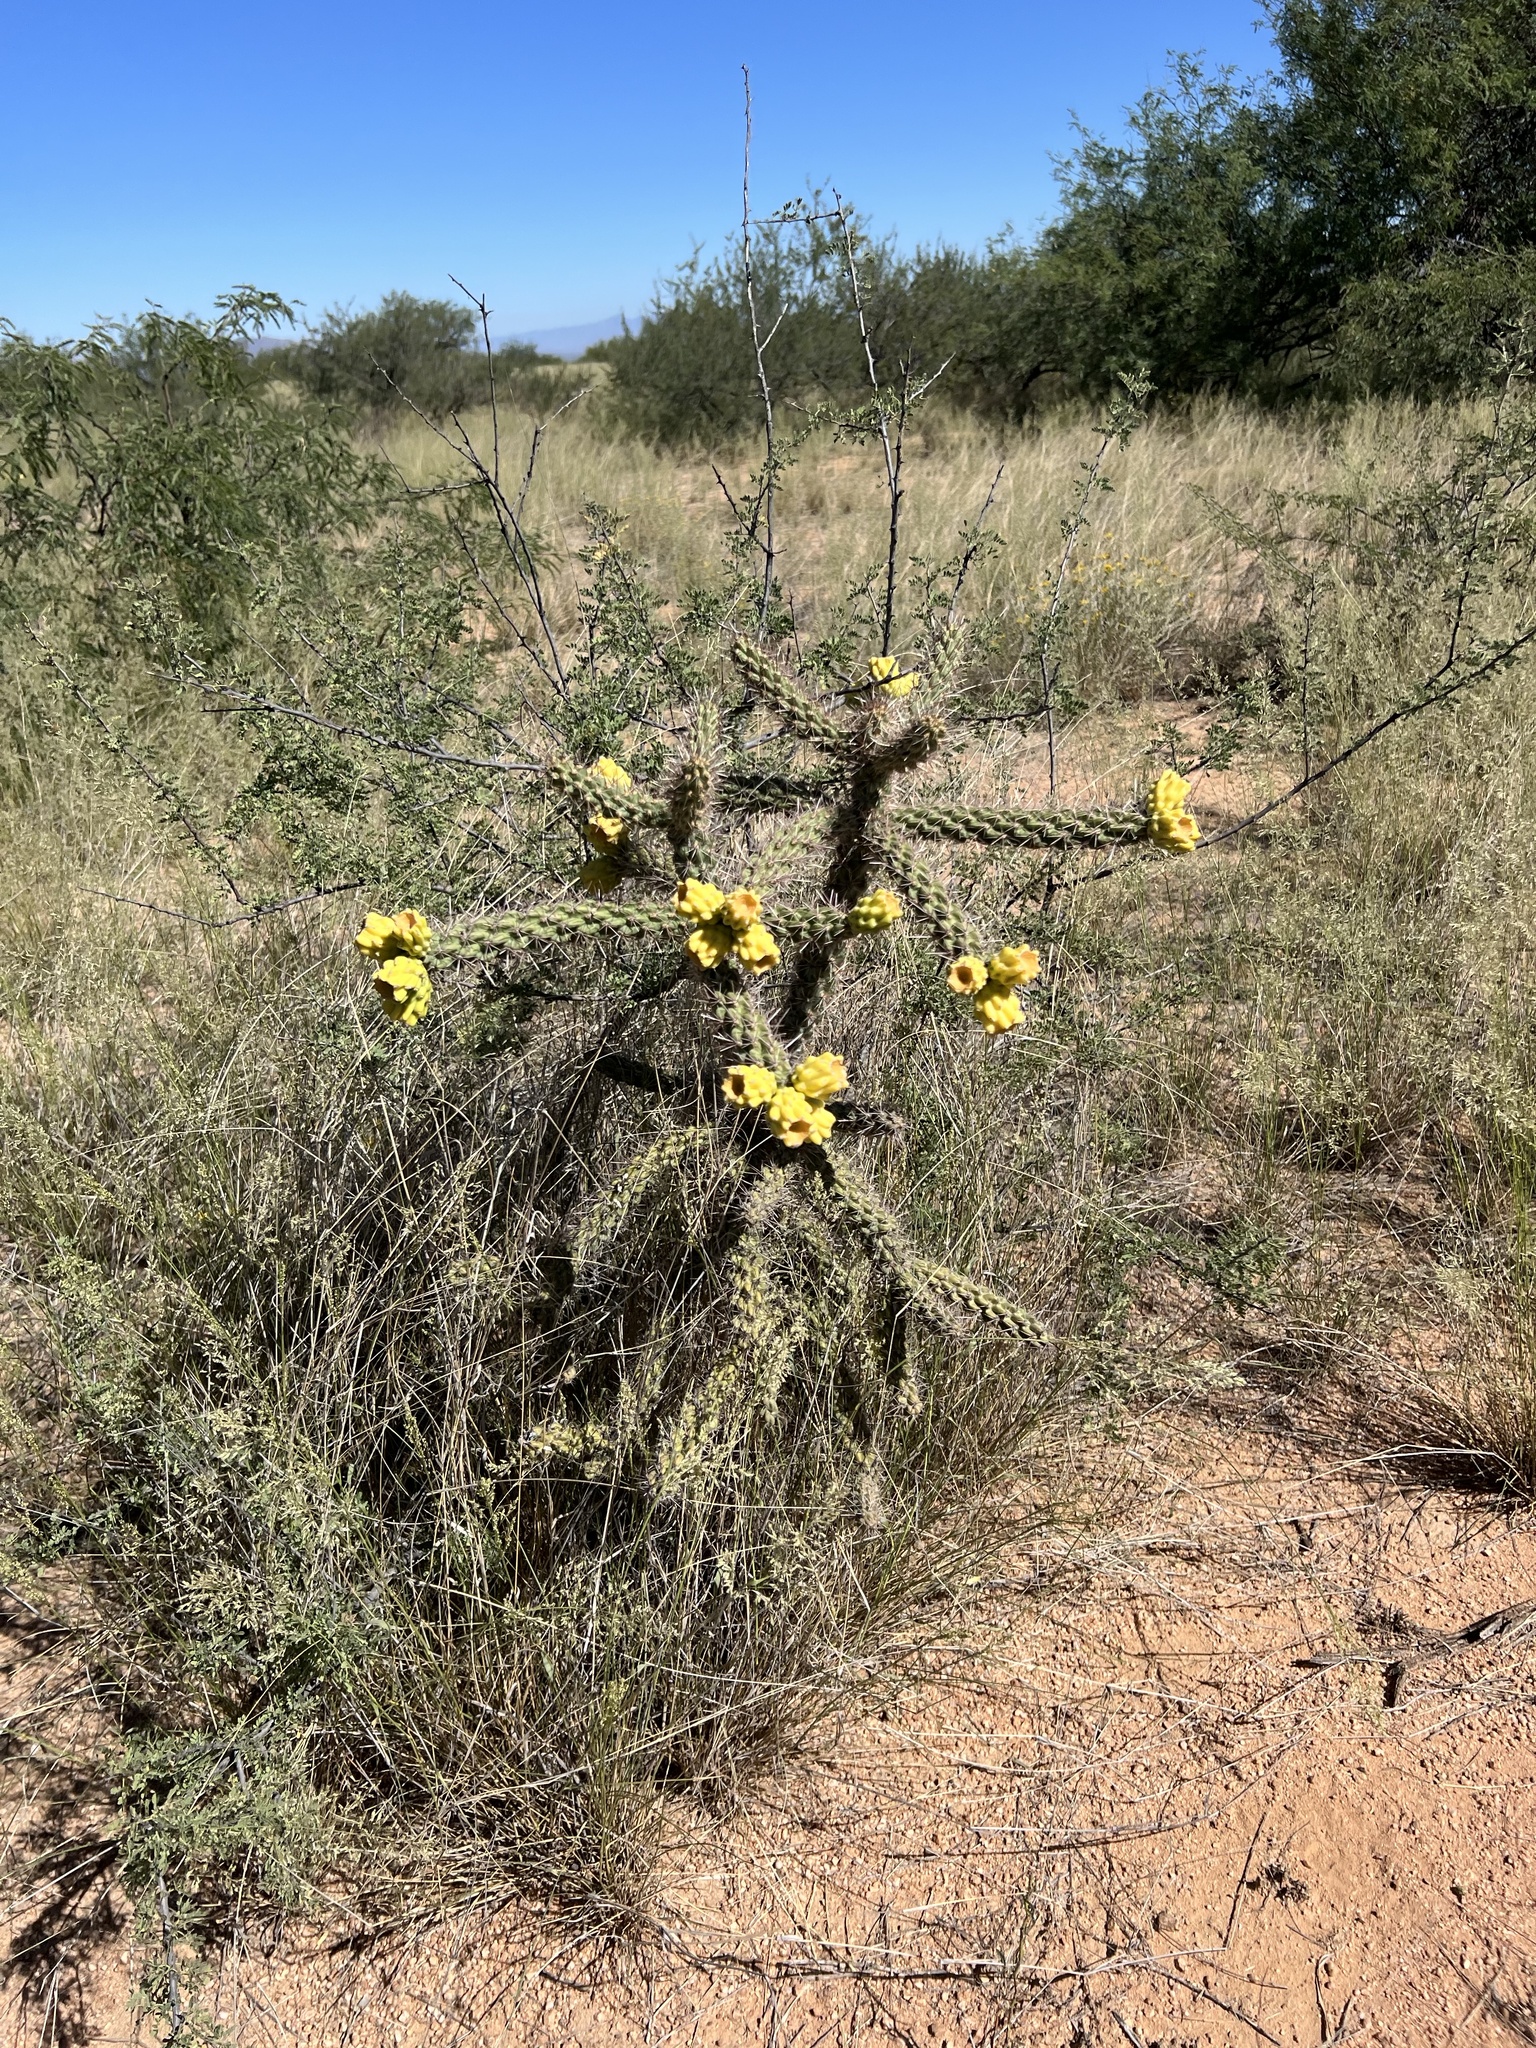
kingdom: Plantae
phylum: Tracheophyta
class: Magnoliopsida
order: Caryophyllales
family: Cactaceae
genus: Cylindropuntia
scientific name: Cylindropuntia imbricata
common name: Candelabrum cactus
